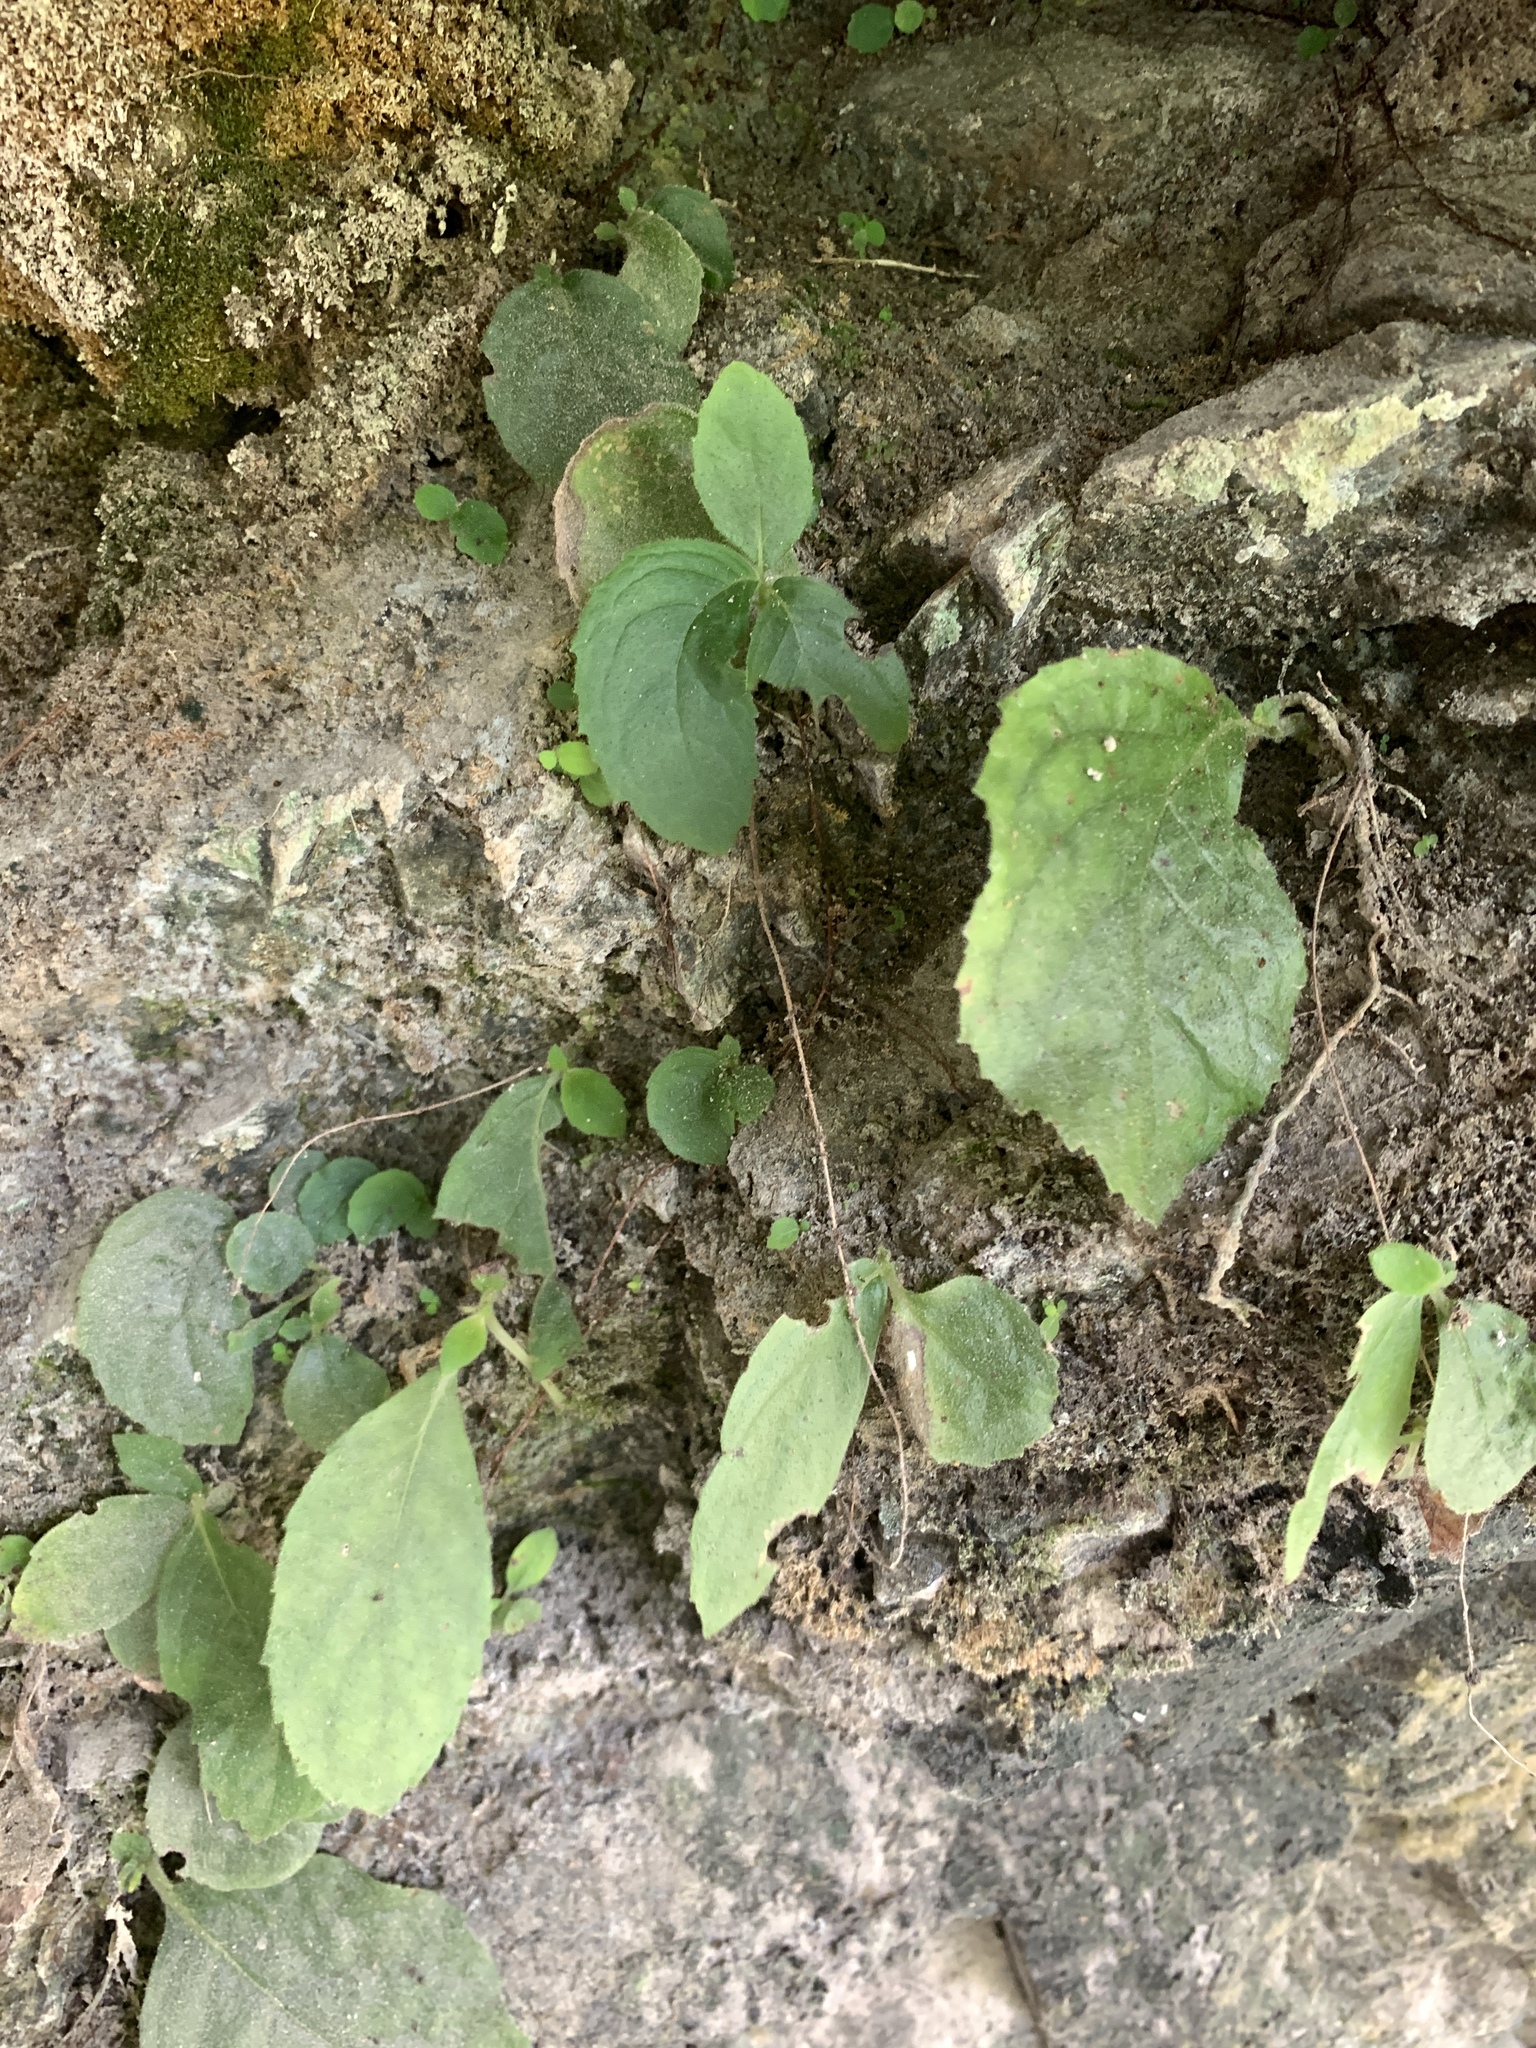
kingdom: Plantae
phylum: Tracheophyta
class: Magnoliopsida
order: Lamiales
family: Gesneriaceae
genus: Titanotrichum
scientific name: Titanotrichum oldhamii
